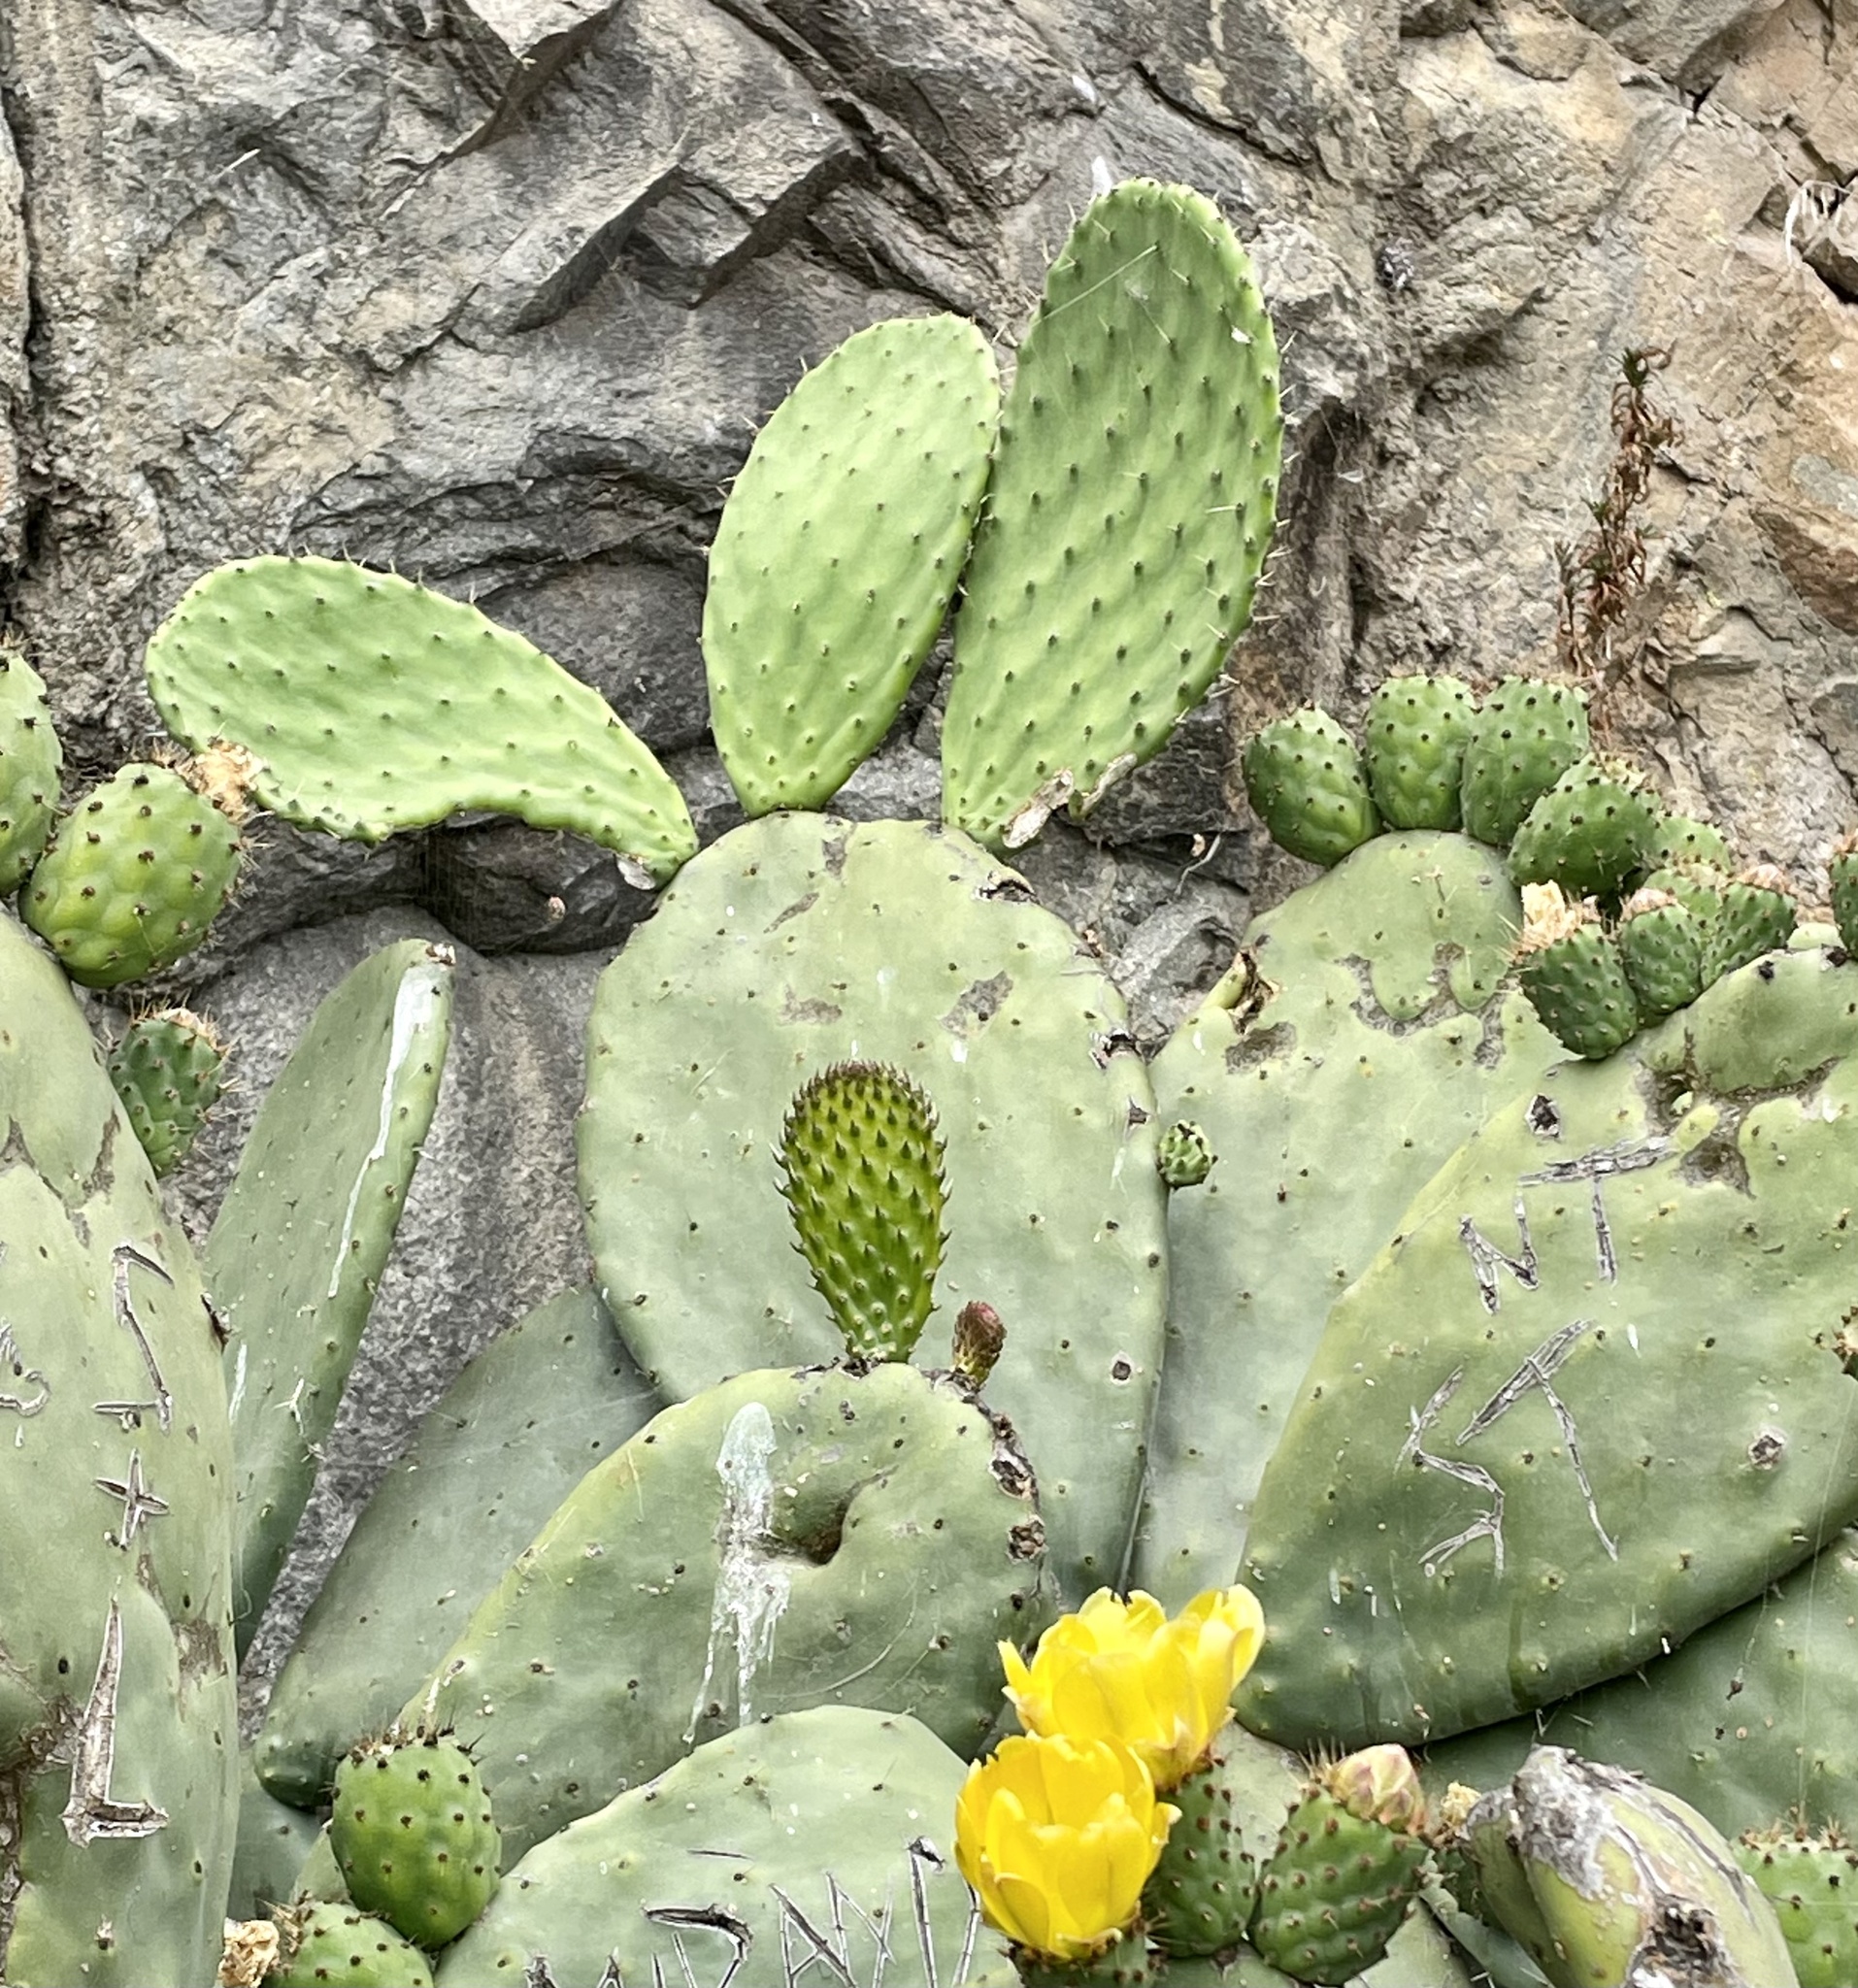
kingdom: Plantae
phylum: Tracheophyta
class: Magnoliopsida
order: Caryophyllales
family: Cactaceae
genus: Opuntia
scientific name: Opuntia ficus-indica
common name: Barbary fig
